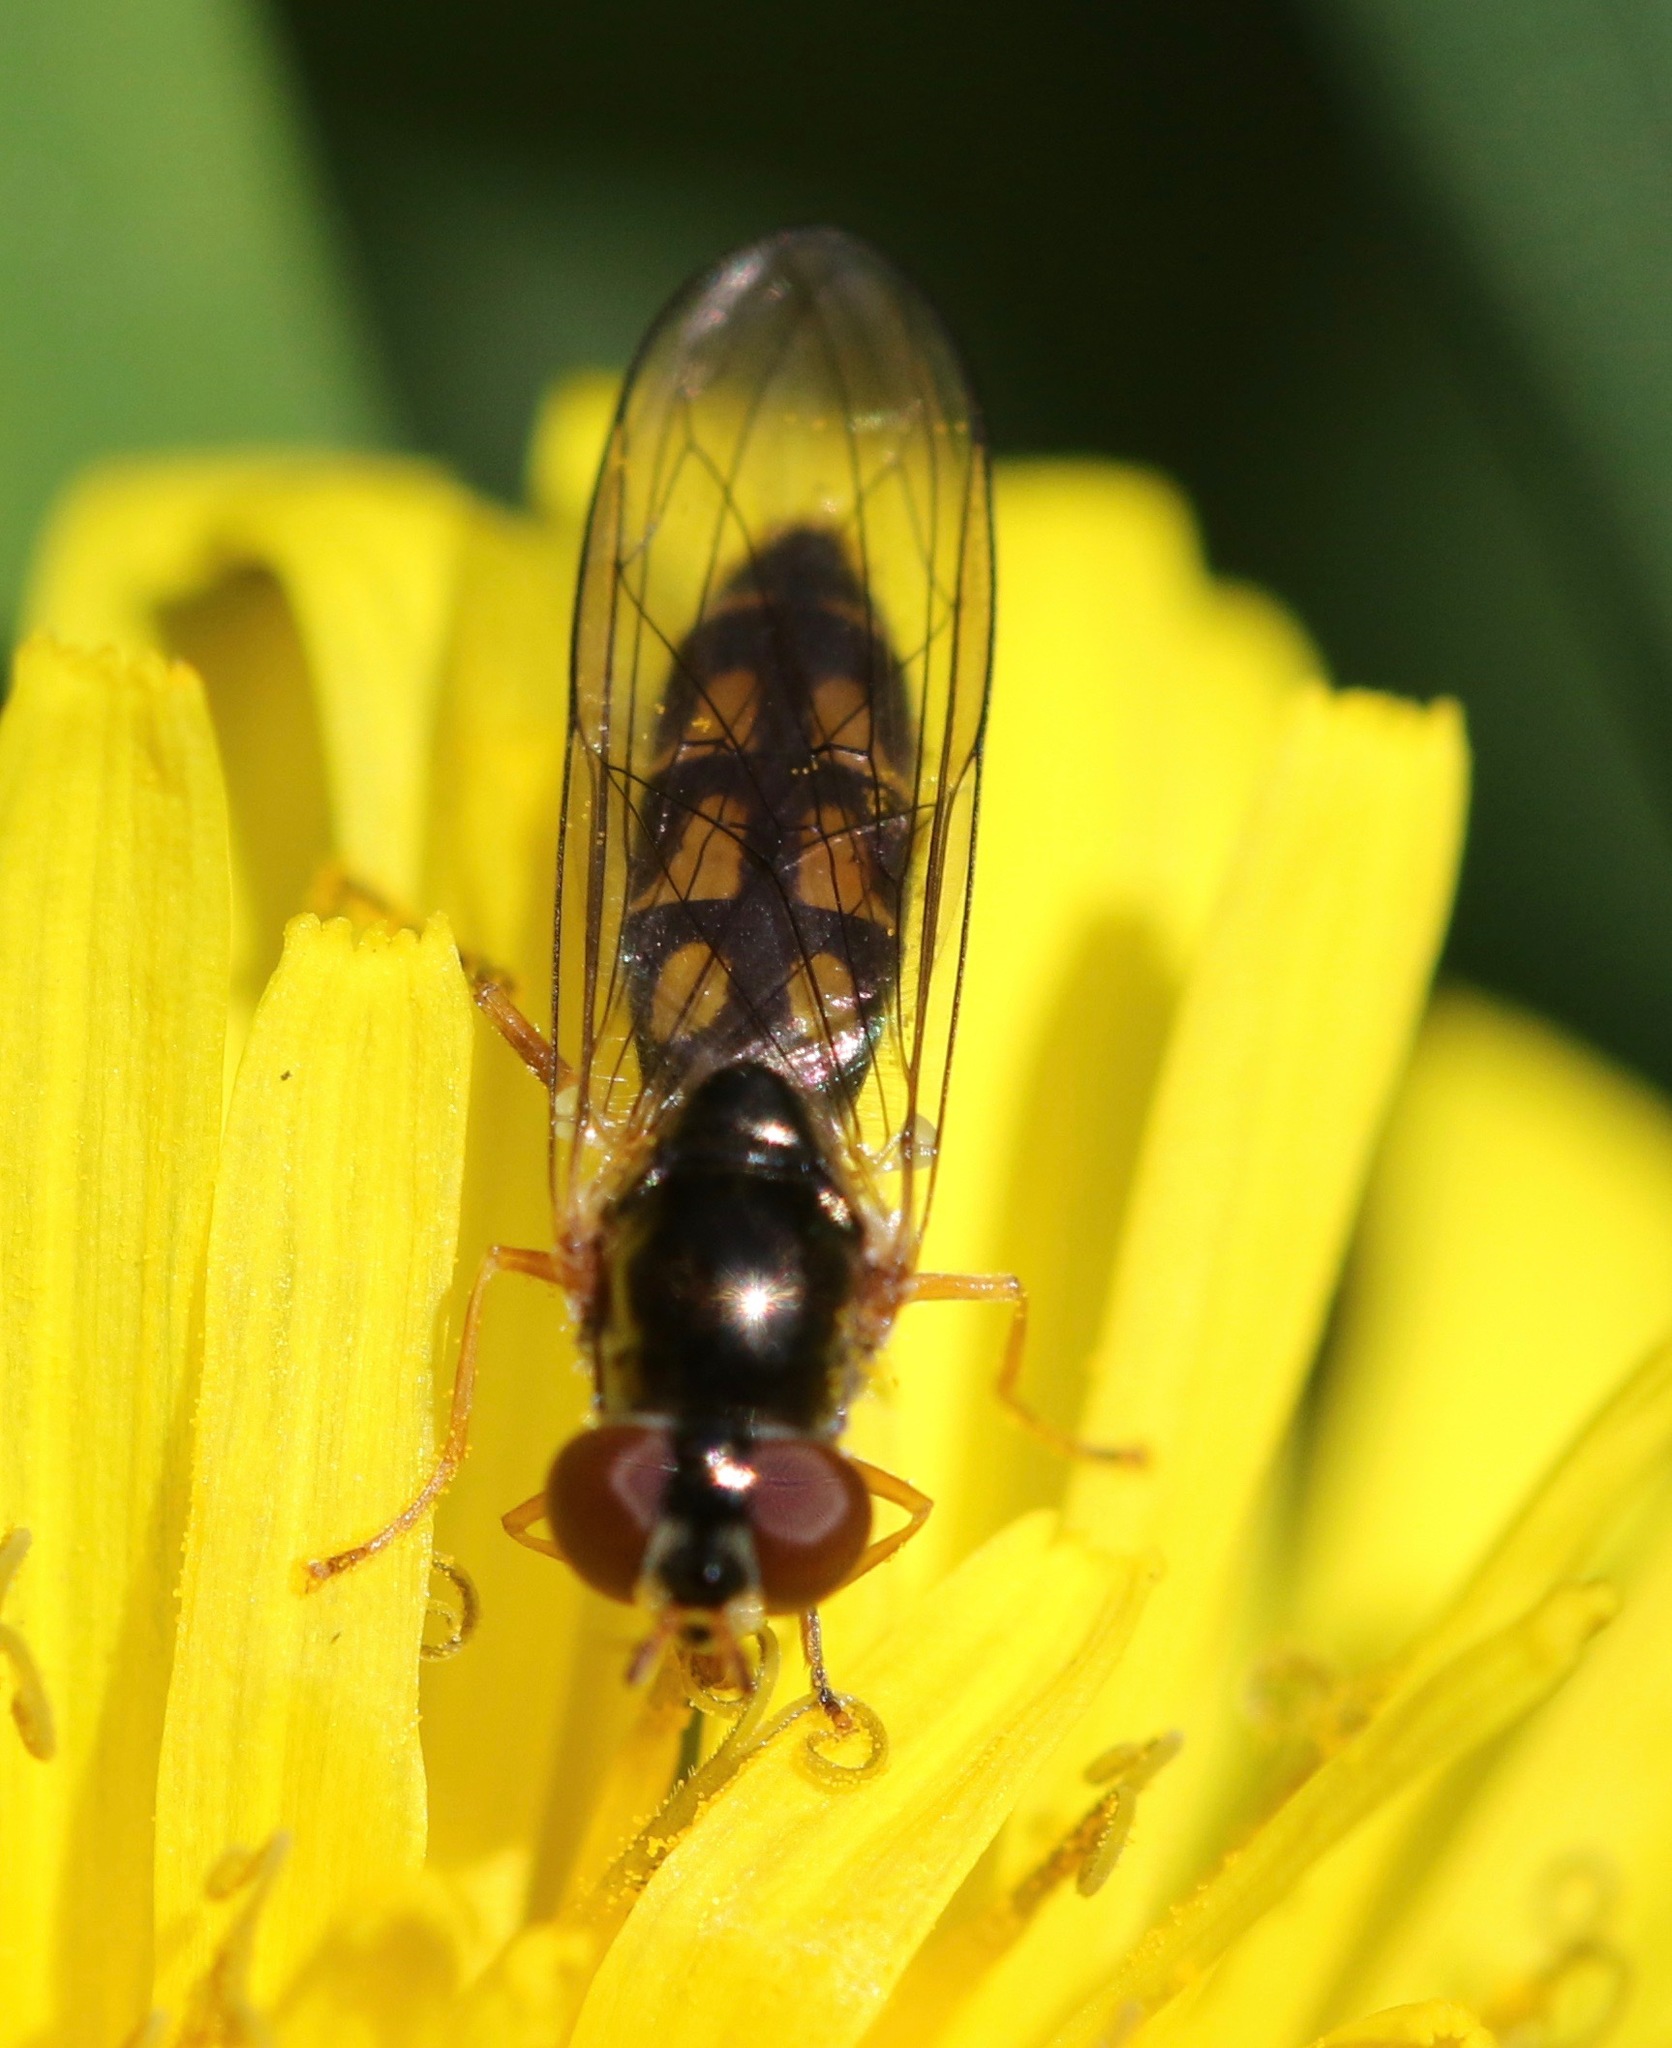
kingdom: Animalia
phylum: Arthropoda
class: Insecta
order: Diptera
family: Syrphidae
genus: Melanostoma
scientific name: Melanostoma scalare
